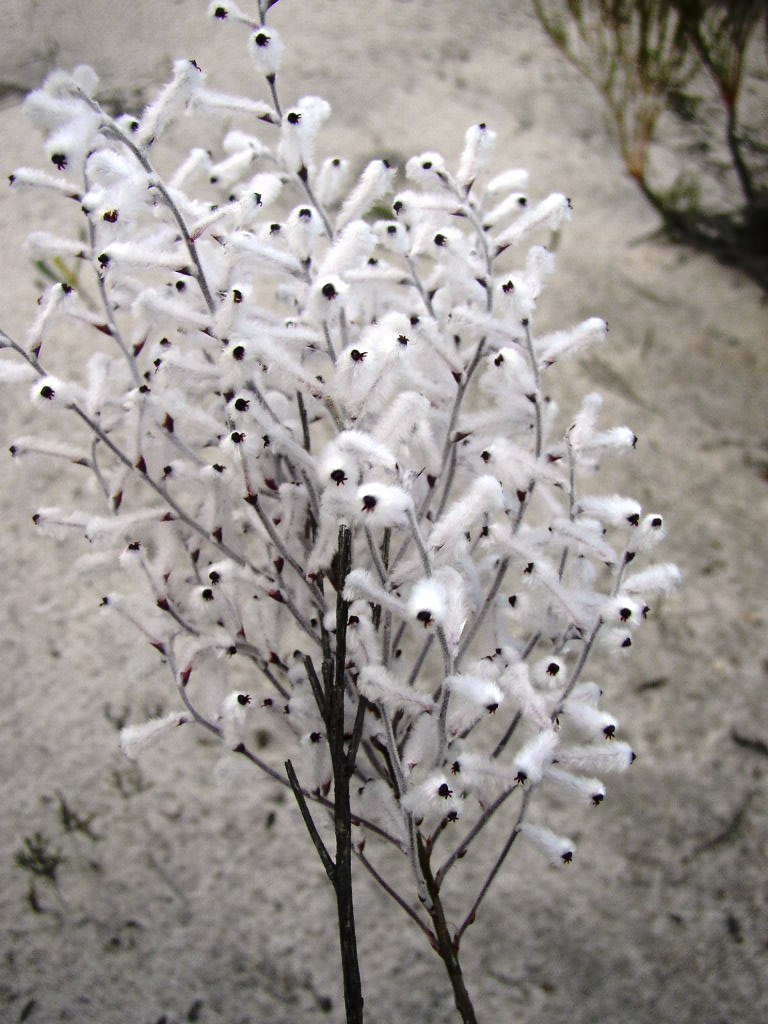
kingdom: Plantae
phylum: Tracheophyta
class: Magnoliopsida
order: Proteales
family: Proteaceae
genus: Conospermum
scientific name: Conospermum incurvum
